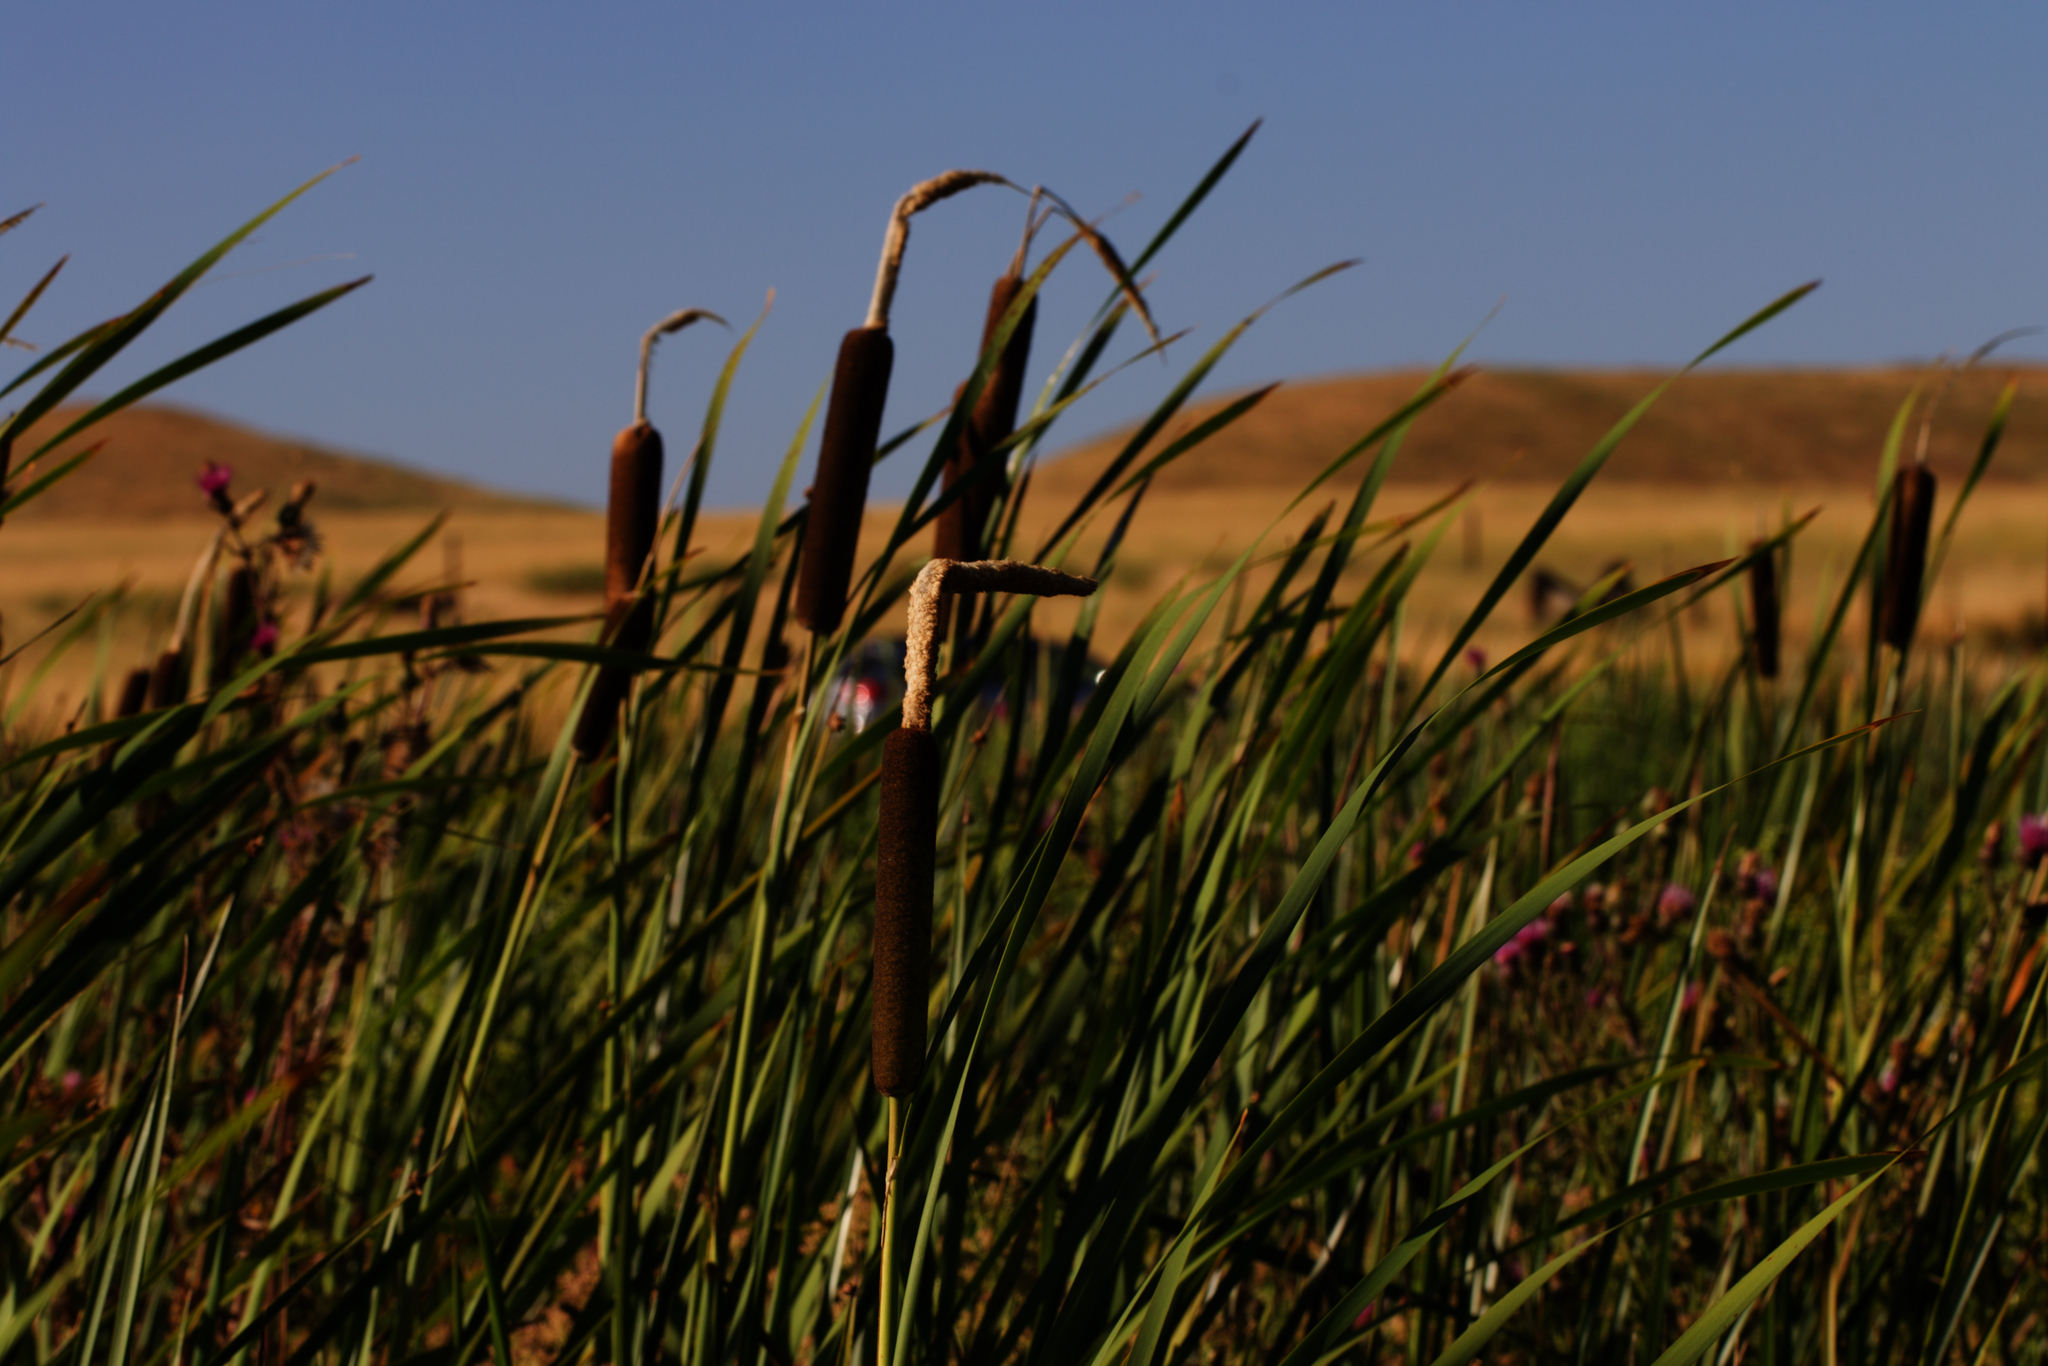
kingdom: Plantae
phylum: Tracheophyta
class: Liliopsida
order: Poales
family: Typhaceae
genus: Typha
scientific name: Typha latifolia
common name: Broadleaf cattail
